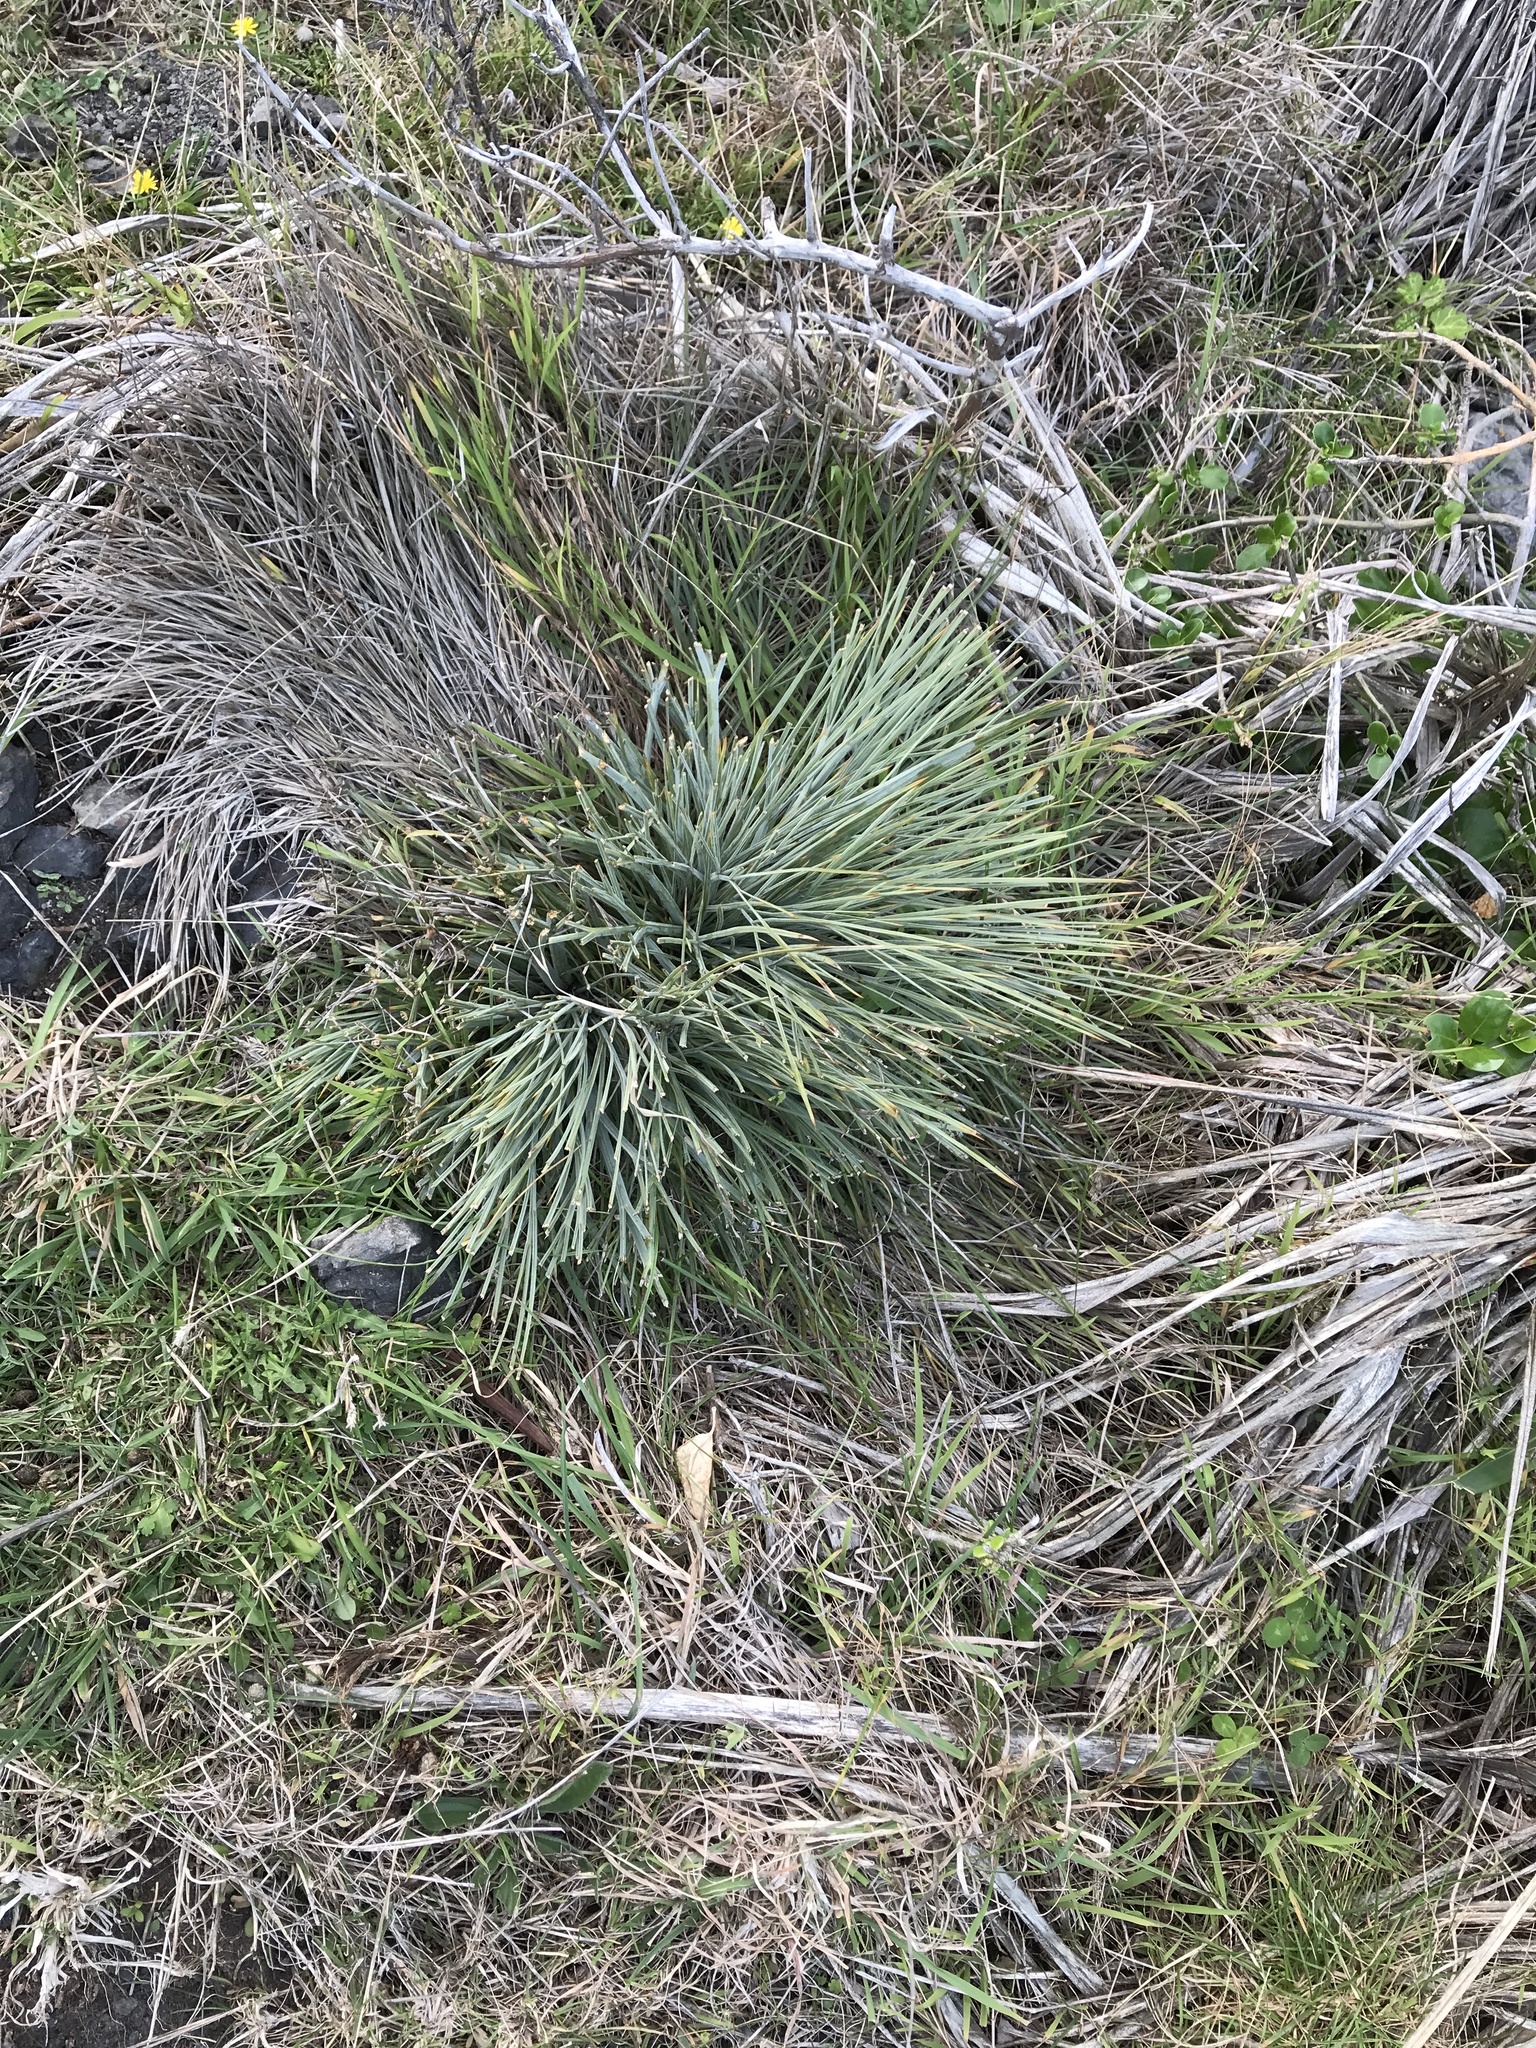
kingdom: Plantae
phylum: Tracheophyta
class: Magnoliopsida
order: Apiales
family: Apiaceae
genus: Aciphylla
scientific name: Aciphylla squarrosa
